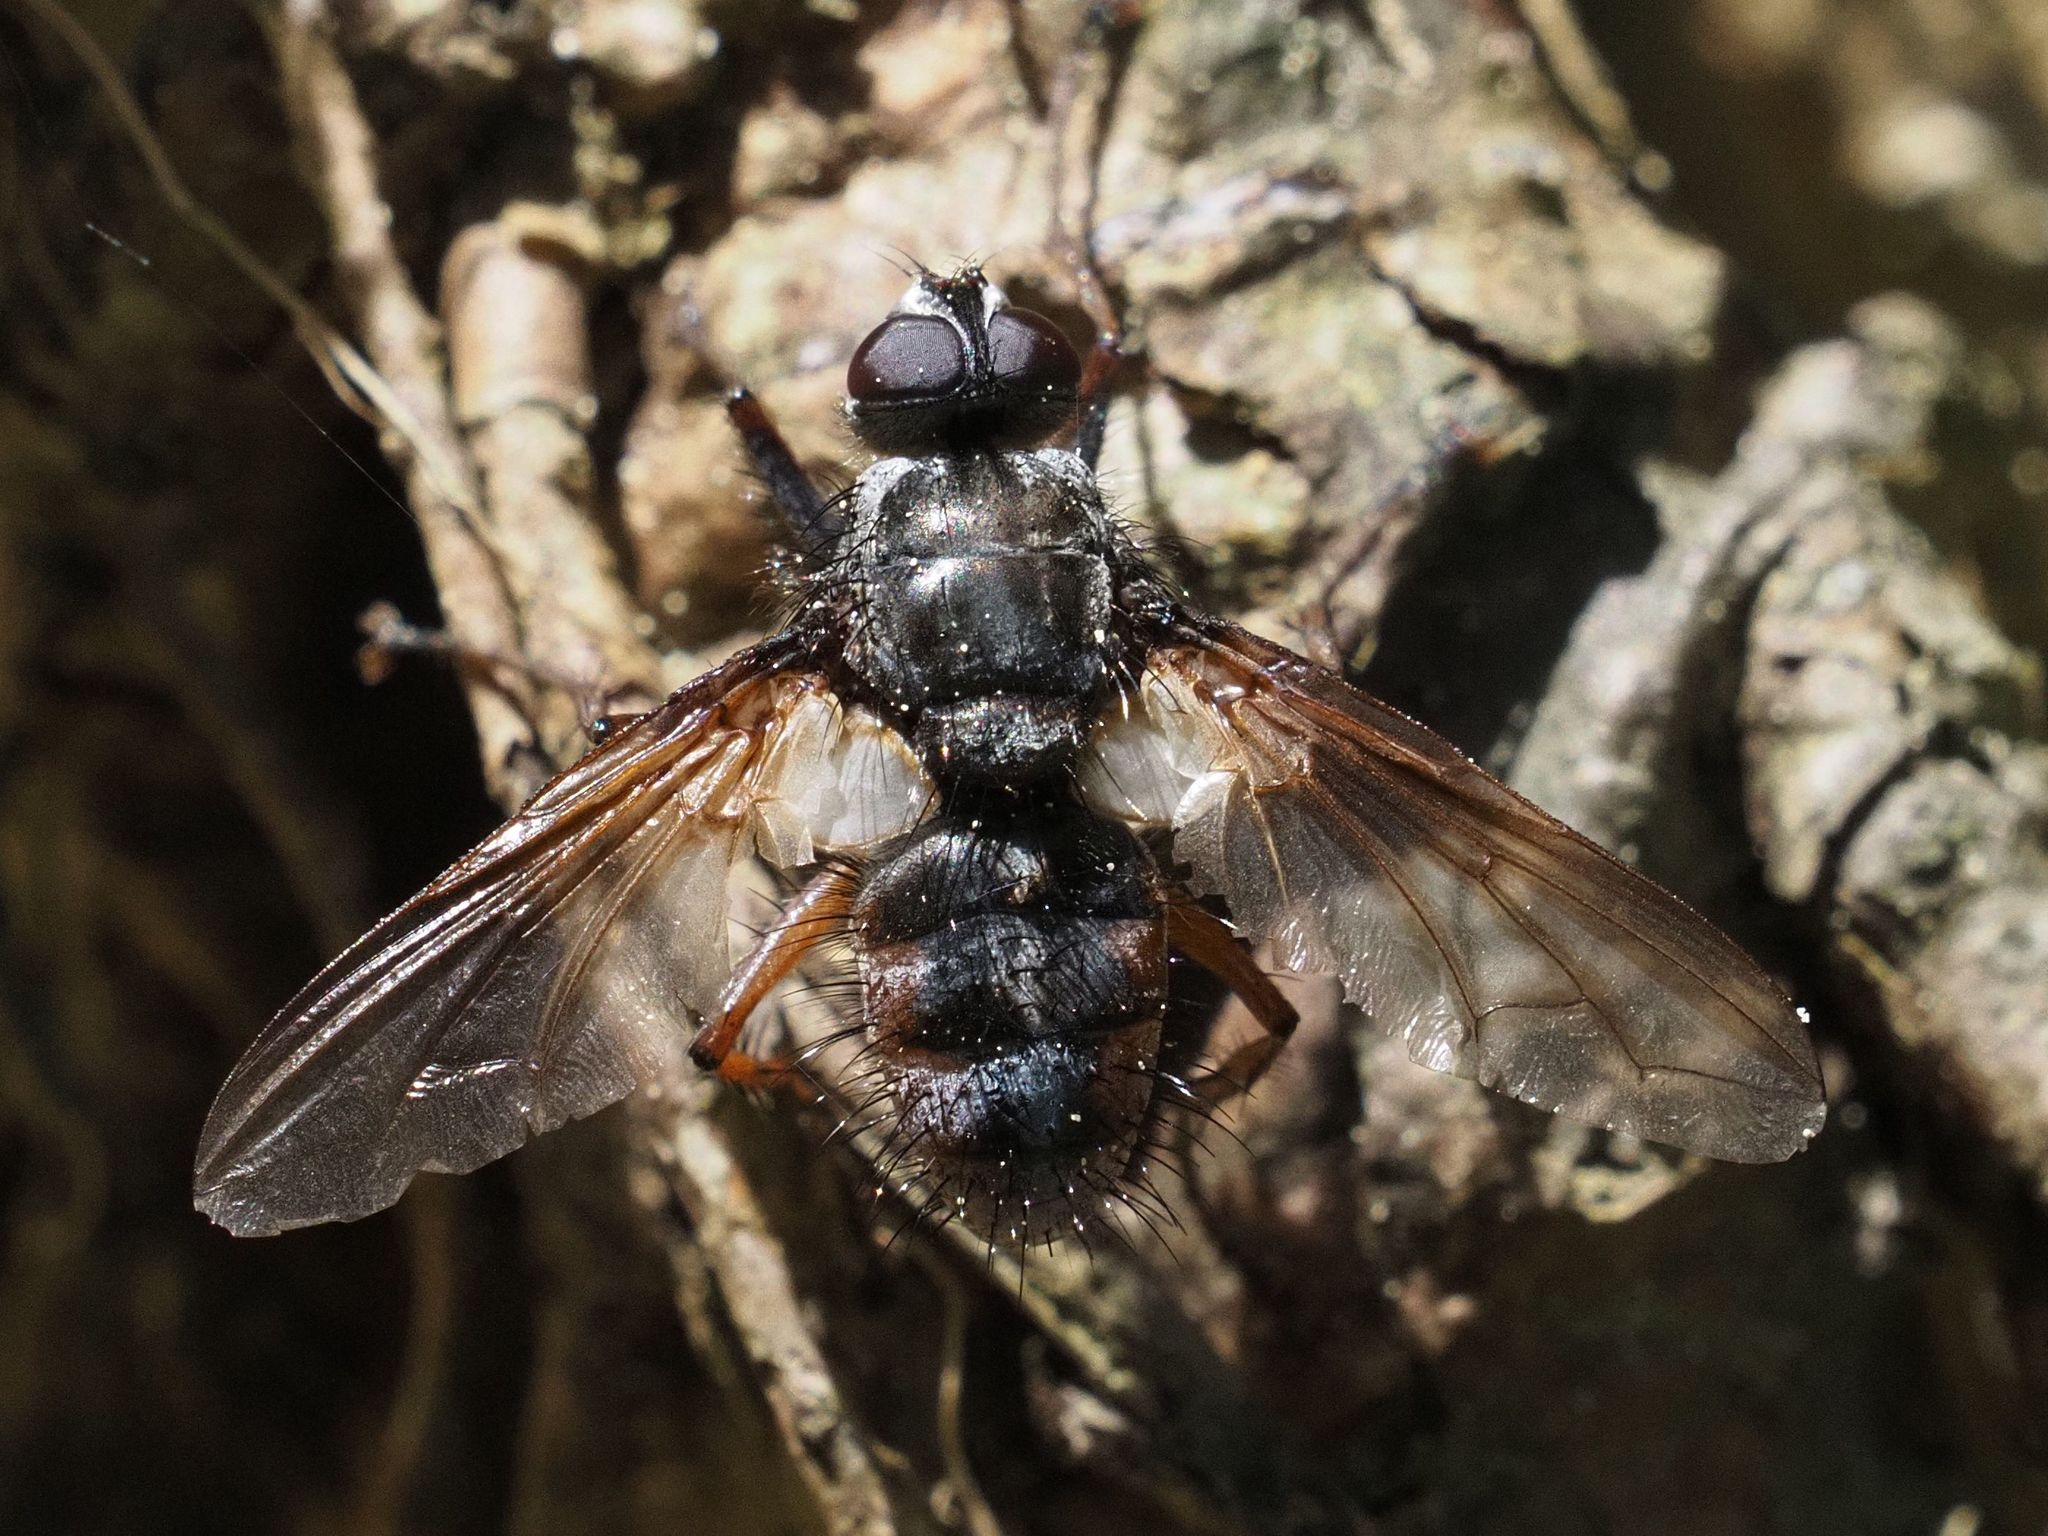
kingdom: Animalia
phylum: Arthropoda
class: Insecta
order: Diptera
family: Tachinidae
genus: Trixa
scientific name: Trixa caerulescens
